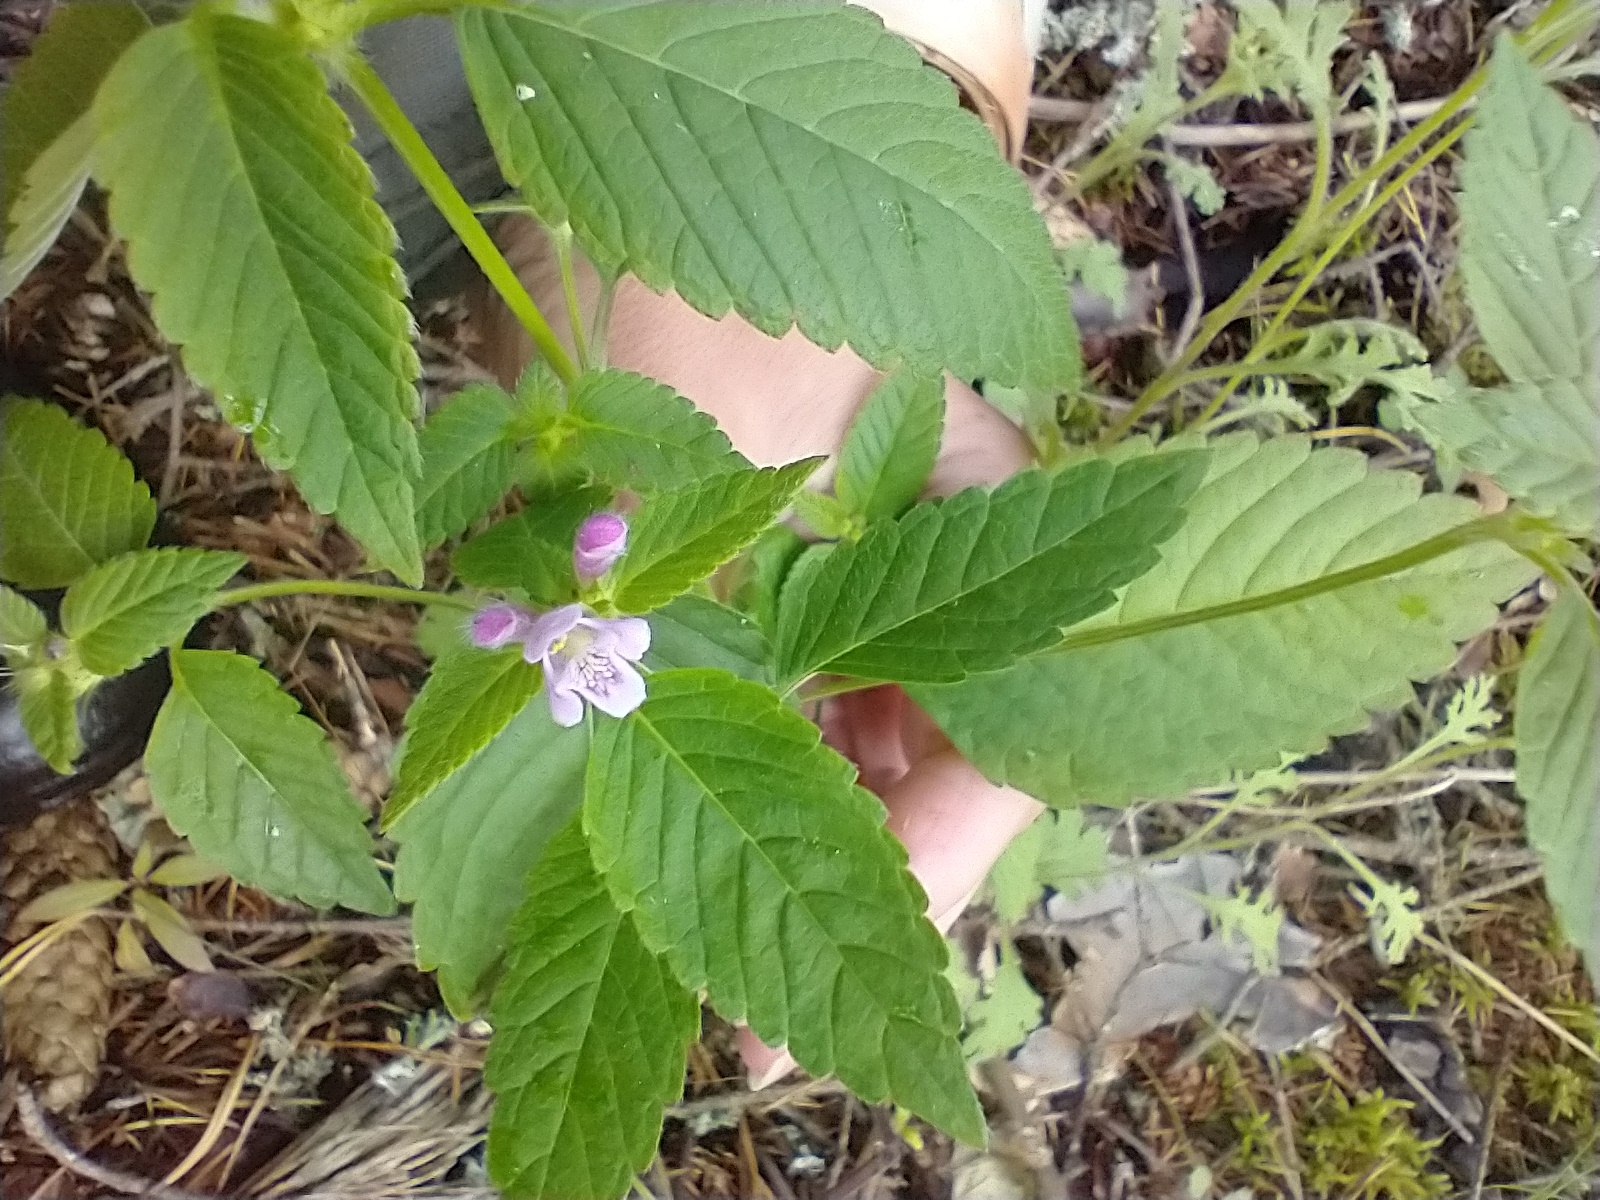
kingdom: Plantae
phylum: Tracheophyta
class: Magnoliopsida
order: Lamiales
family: Lamiaceae
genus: Galeopsis
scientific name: Galeopsis bifida
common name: Bifid hemp-nettle
